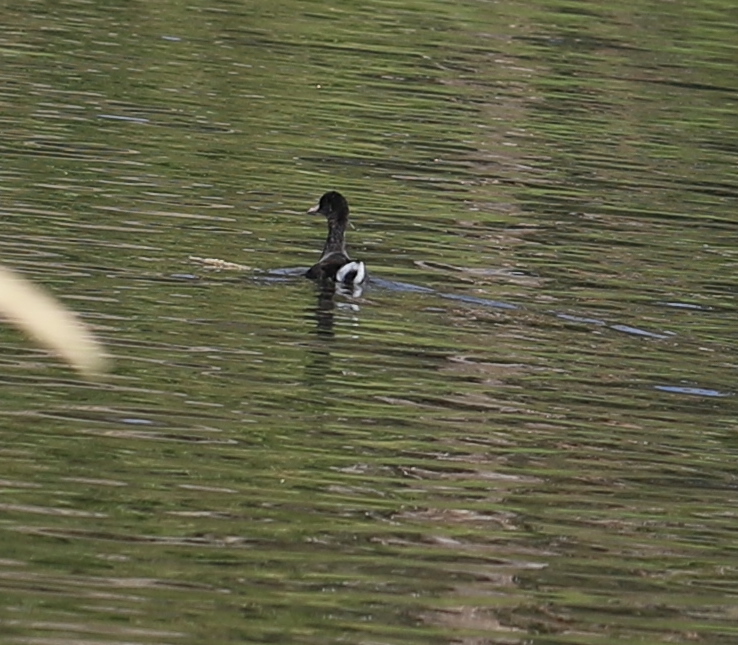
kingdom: Animalia
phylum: Chordata
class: Aves
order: Gruiformes
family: Rallidae
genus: Fulica
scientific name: Fulica americana
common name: American coot
